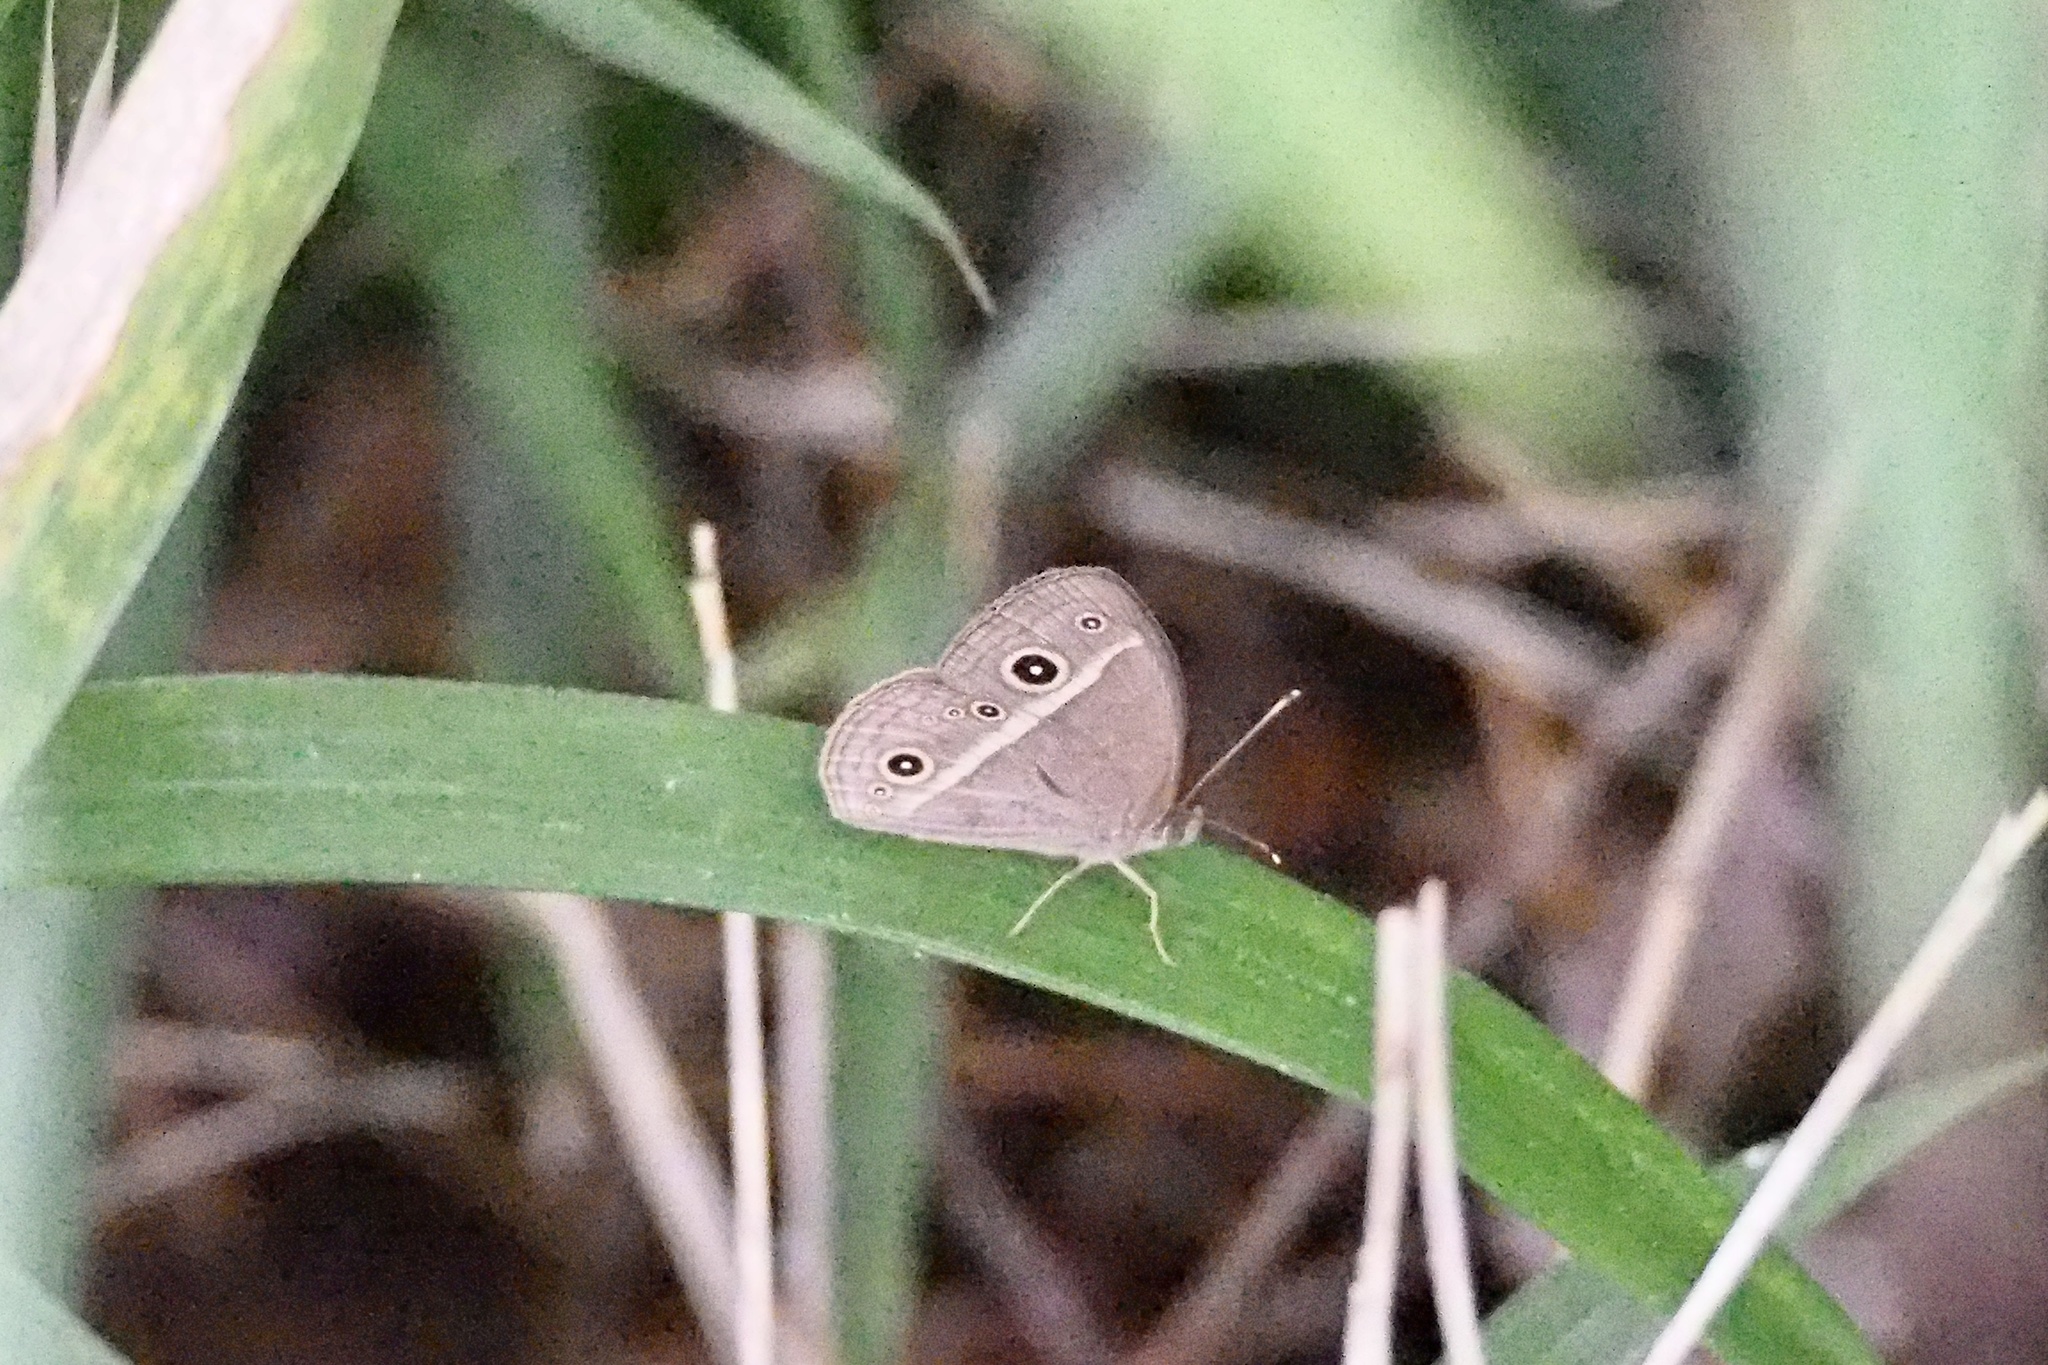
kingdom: Animalia
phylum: Arthropoda
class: Insecta
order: Lepidoptera
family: Nymphalidae
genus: Mycalesis
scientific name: Mycalesis gotama
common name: Chinese bushbrown
